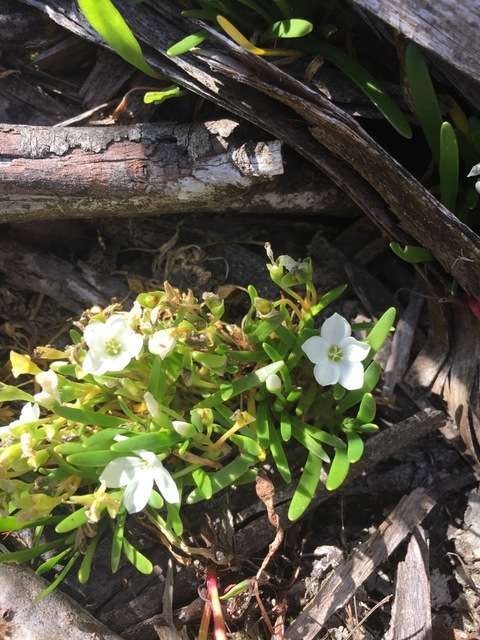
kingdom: Plantae
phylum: Tracheophyta
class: Magnoliopsida
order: Caryophyllales
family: Montiaceae
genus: Montia
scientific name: Montia australasica
